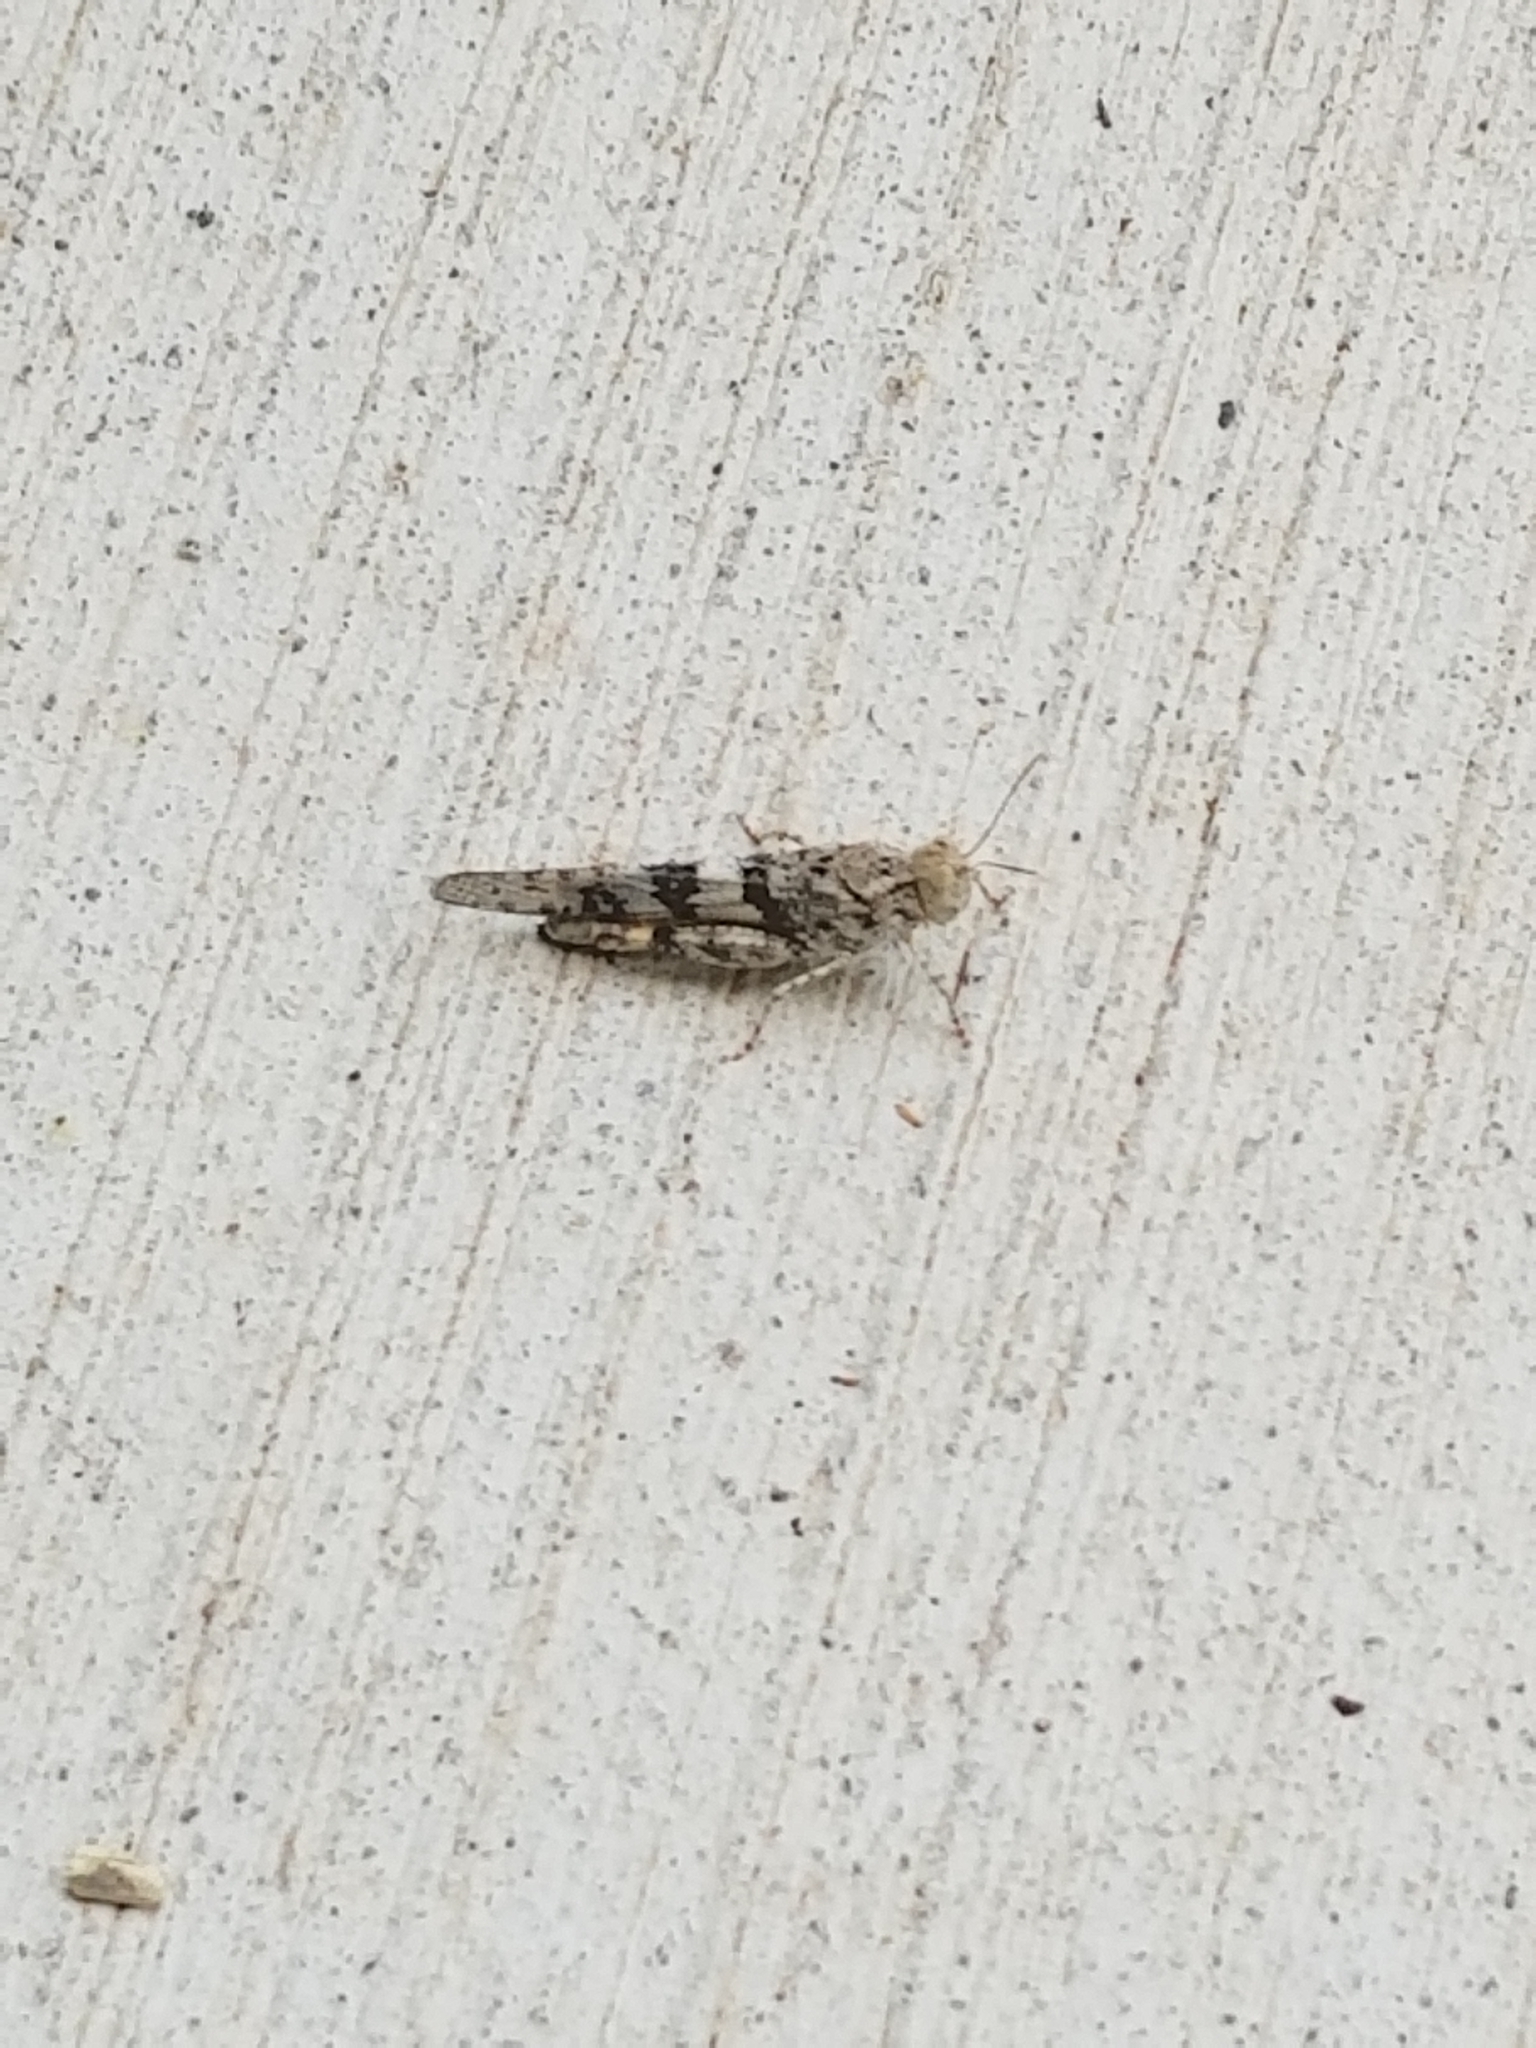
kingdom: Animalia
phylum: Arthropoda
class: Insecta
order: Orthoptera
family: Acrididae
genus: Trimerotropis
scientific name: Trimerotropis pallidipennis
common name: Pallid-winged grasshopper
